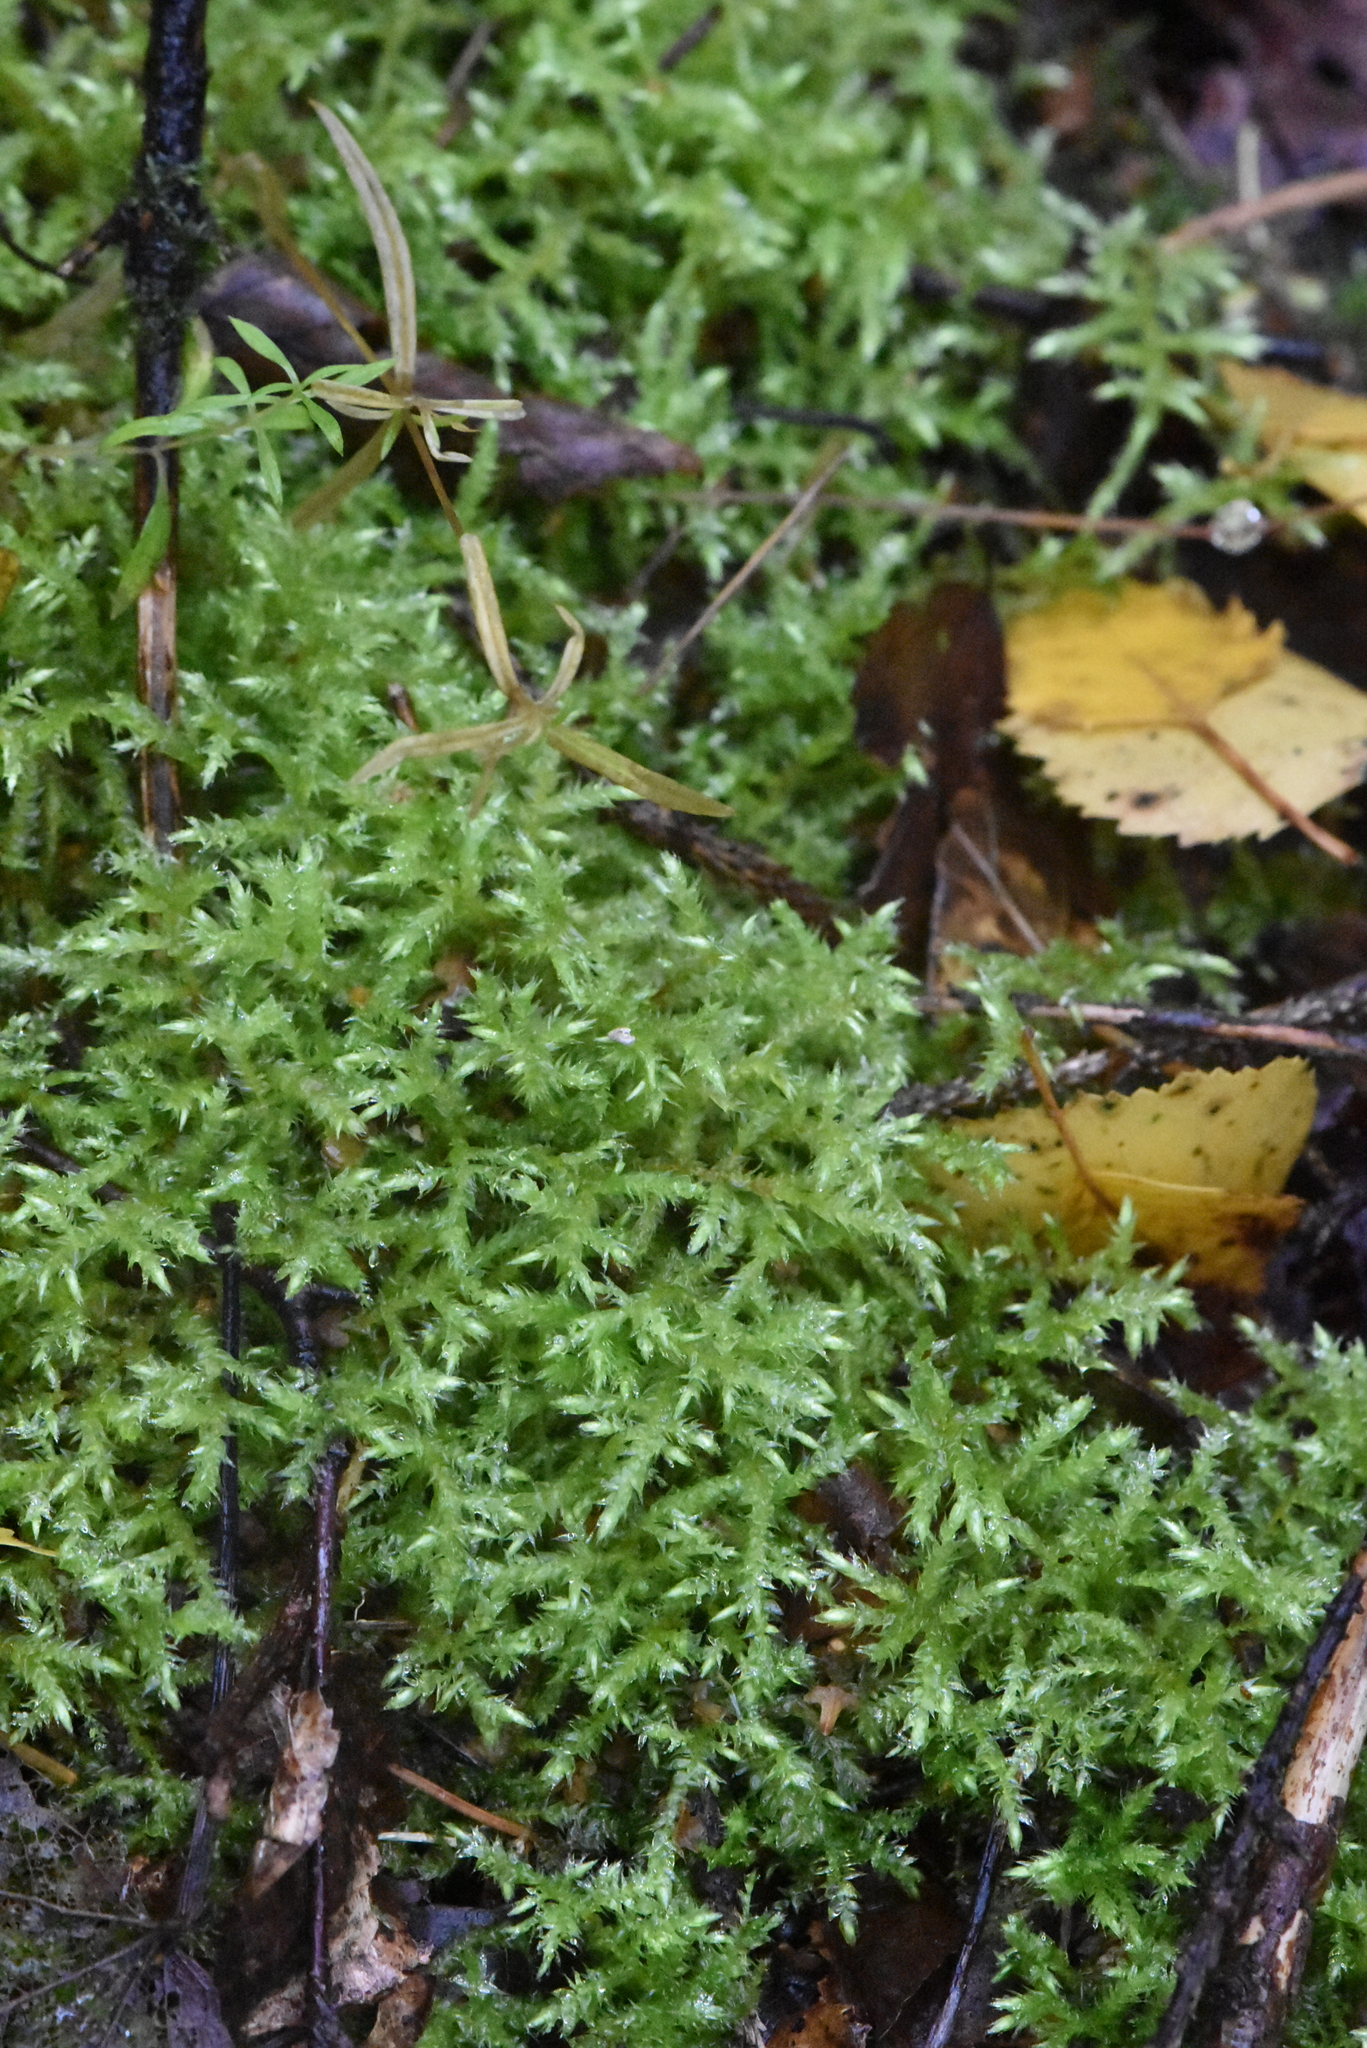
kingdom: Plantae
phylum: Bryophyta
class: Bryopsida
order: Hypnales
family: Brachytheciaceae
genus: Cirriphyllum
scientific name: Cirriphyllum piliferum
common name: Hair-pointed moss
